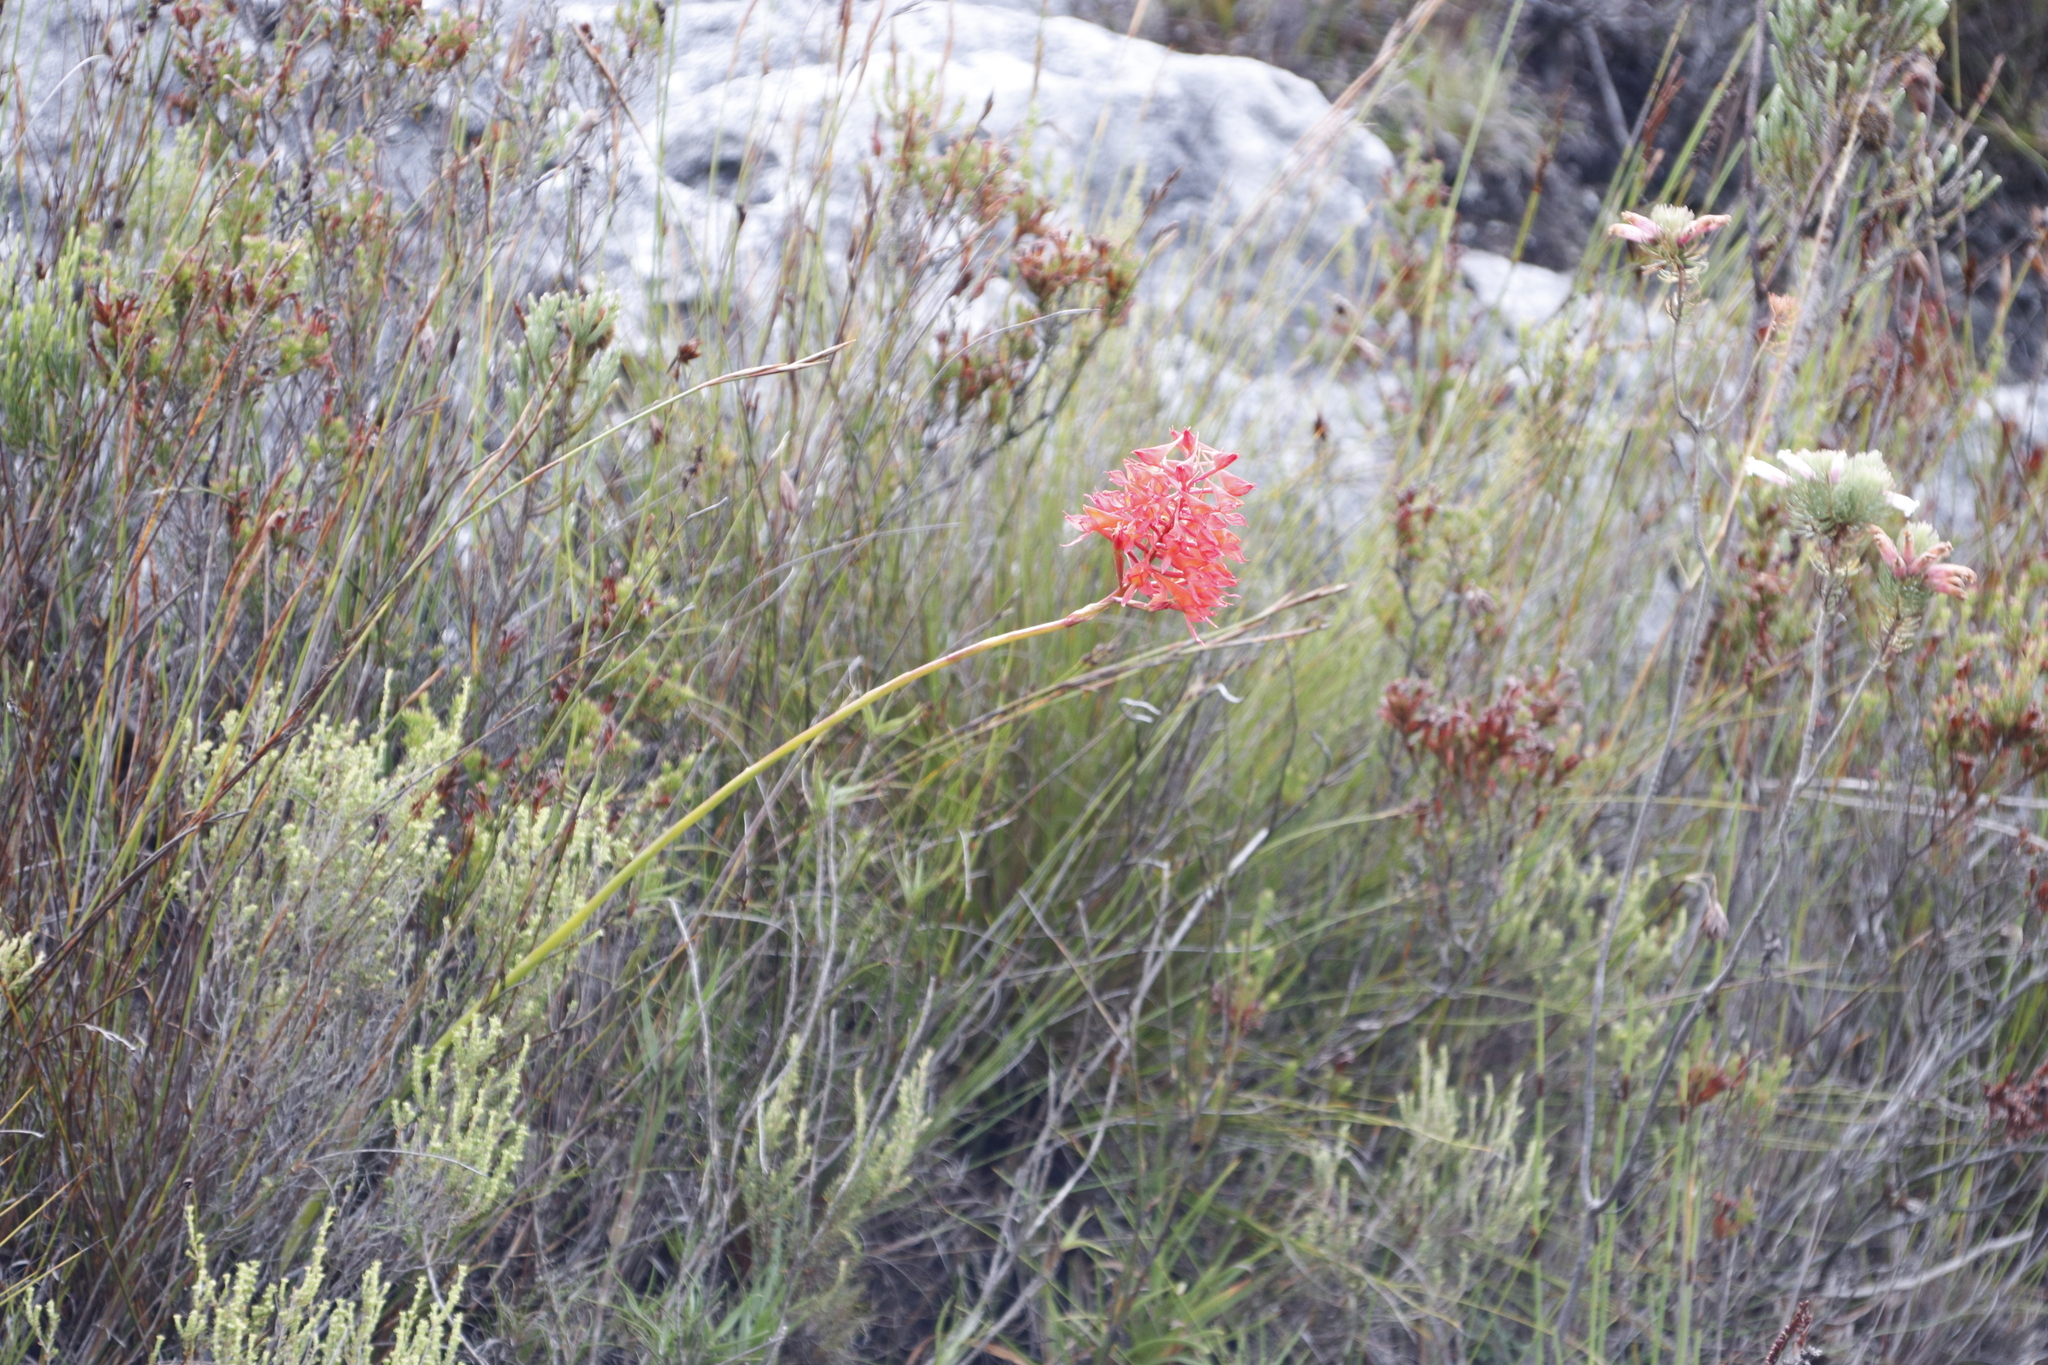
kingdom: Plantae
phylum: Tracheophyta
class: Liliopsida
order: Asparagales
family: Orchidaceae
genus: Disa
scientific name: Disa ferruginea
